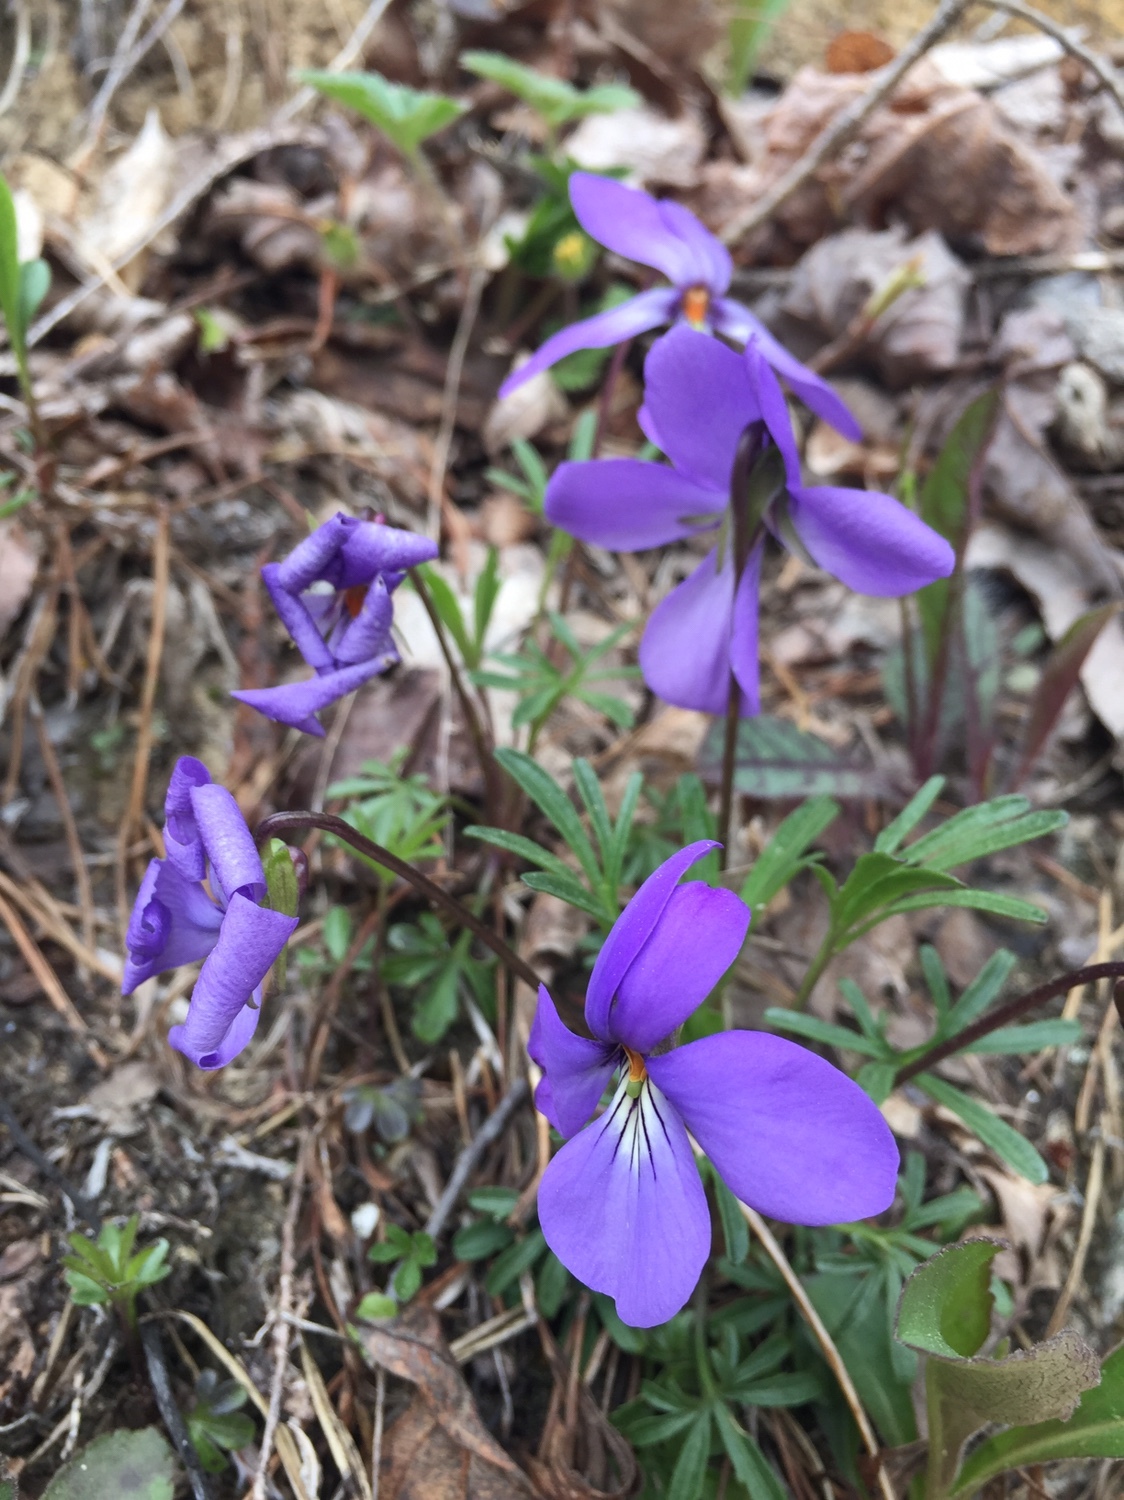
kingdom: Plantae
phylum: Tracheophyta
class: Magnoliopsida
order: Malpighiales
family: Violaceae
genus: Viola
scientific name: Viola pedata
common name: Pansy violet
